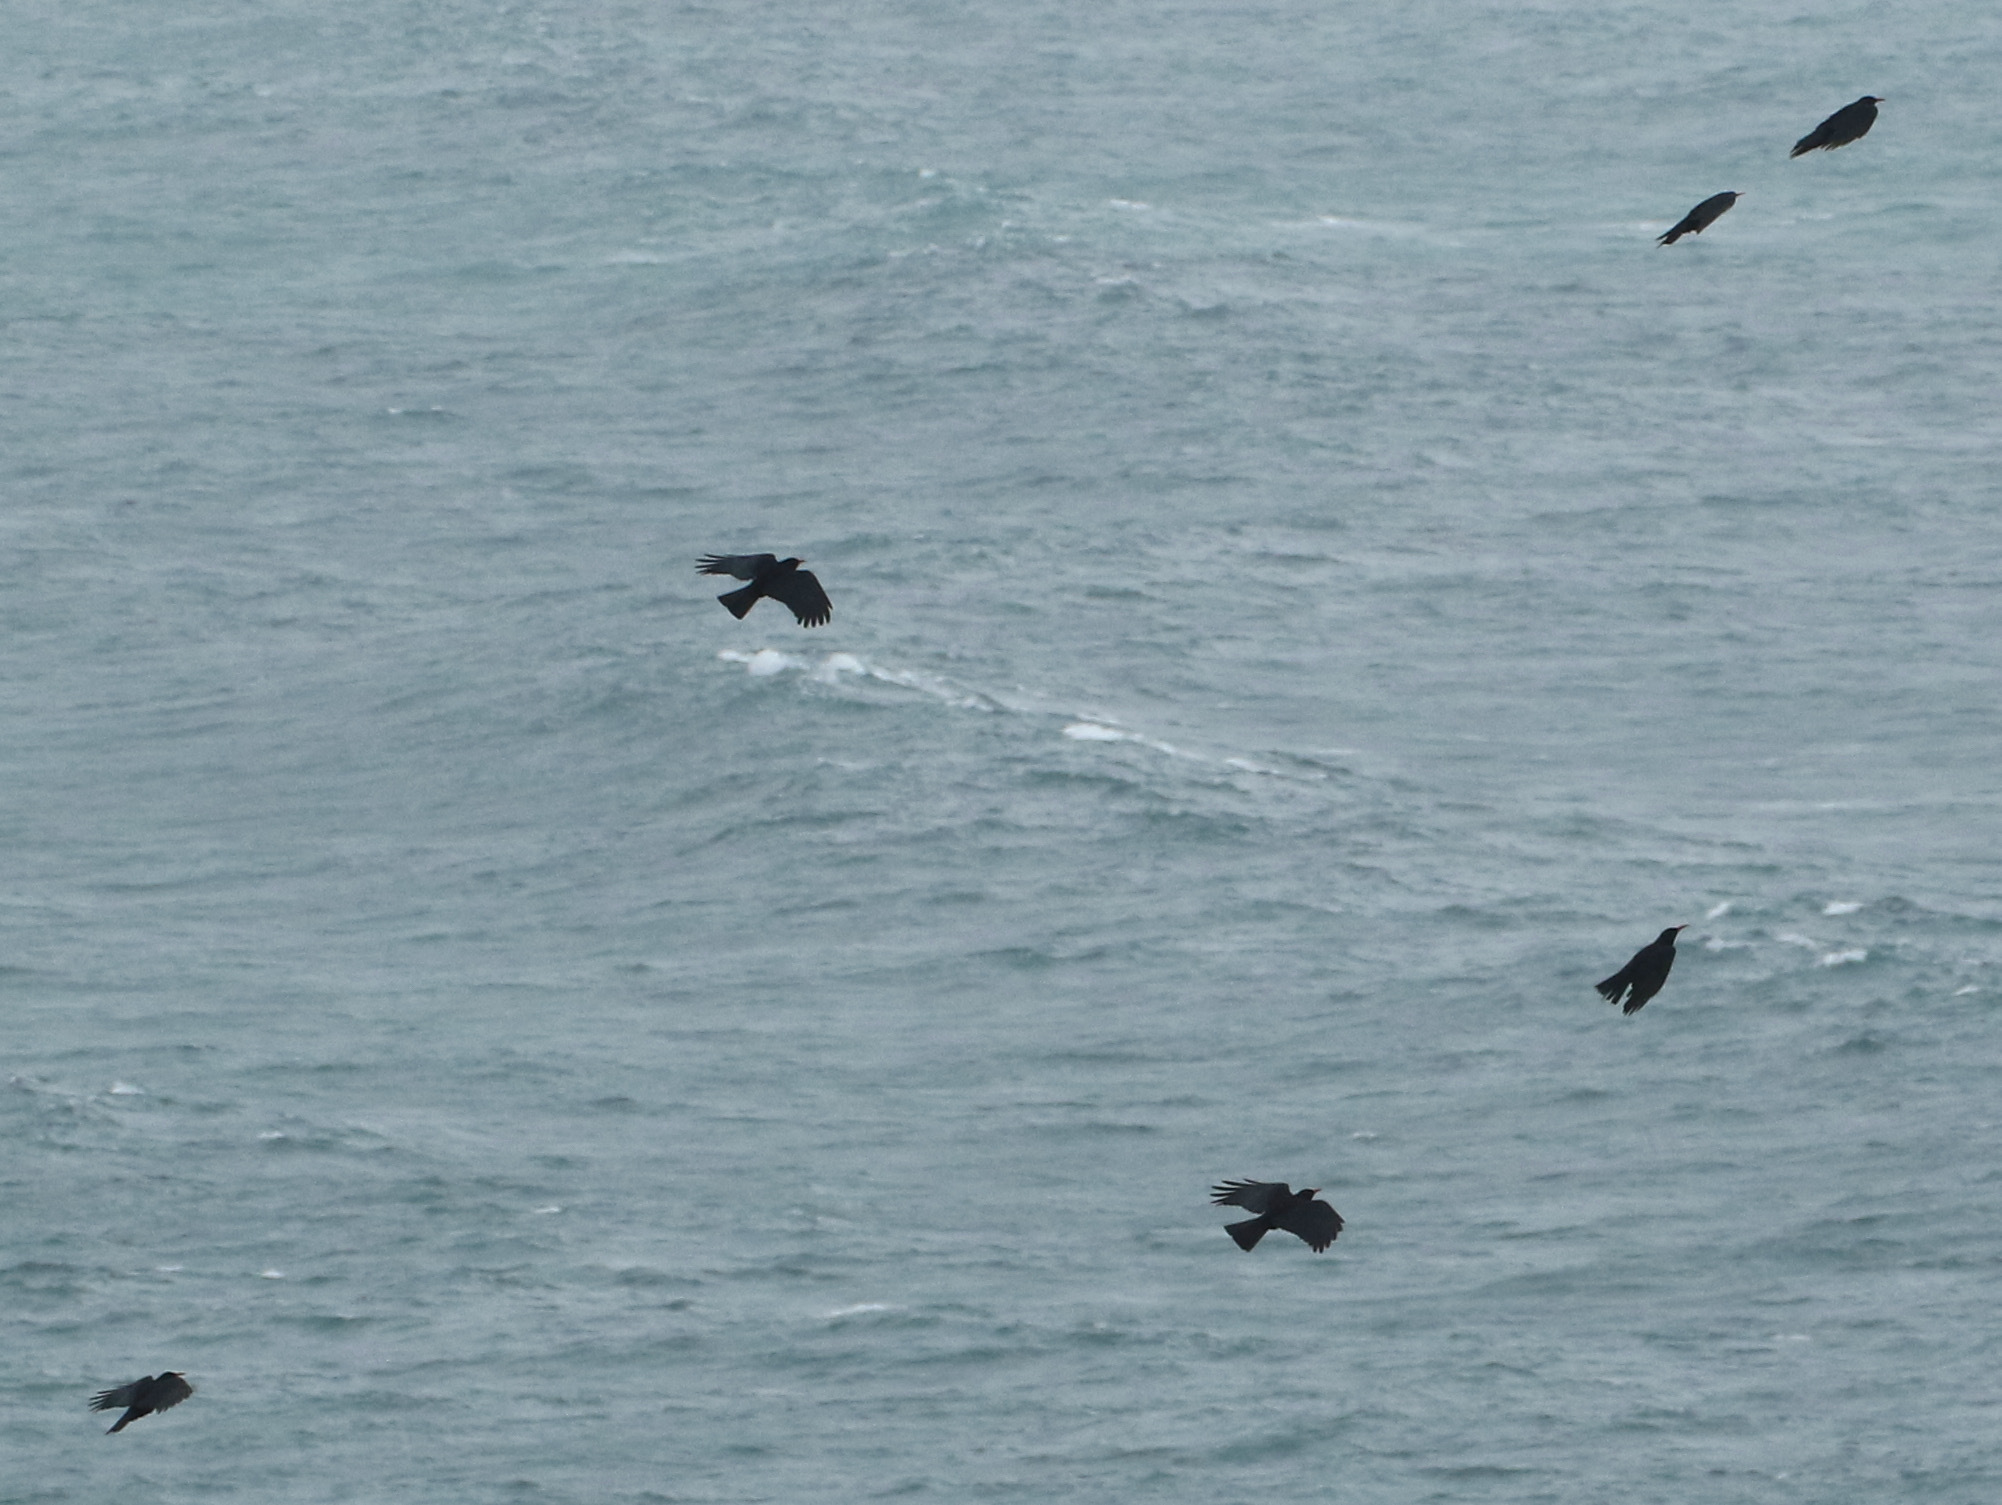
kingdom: Animalia
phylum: Chordata
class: Aves
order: Passeriformes
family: Corvidae
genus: Pyrrhocorax
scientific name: Pyrrhocorax pyrrhocorax
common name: Red-billed chough
